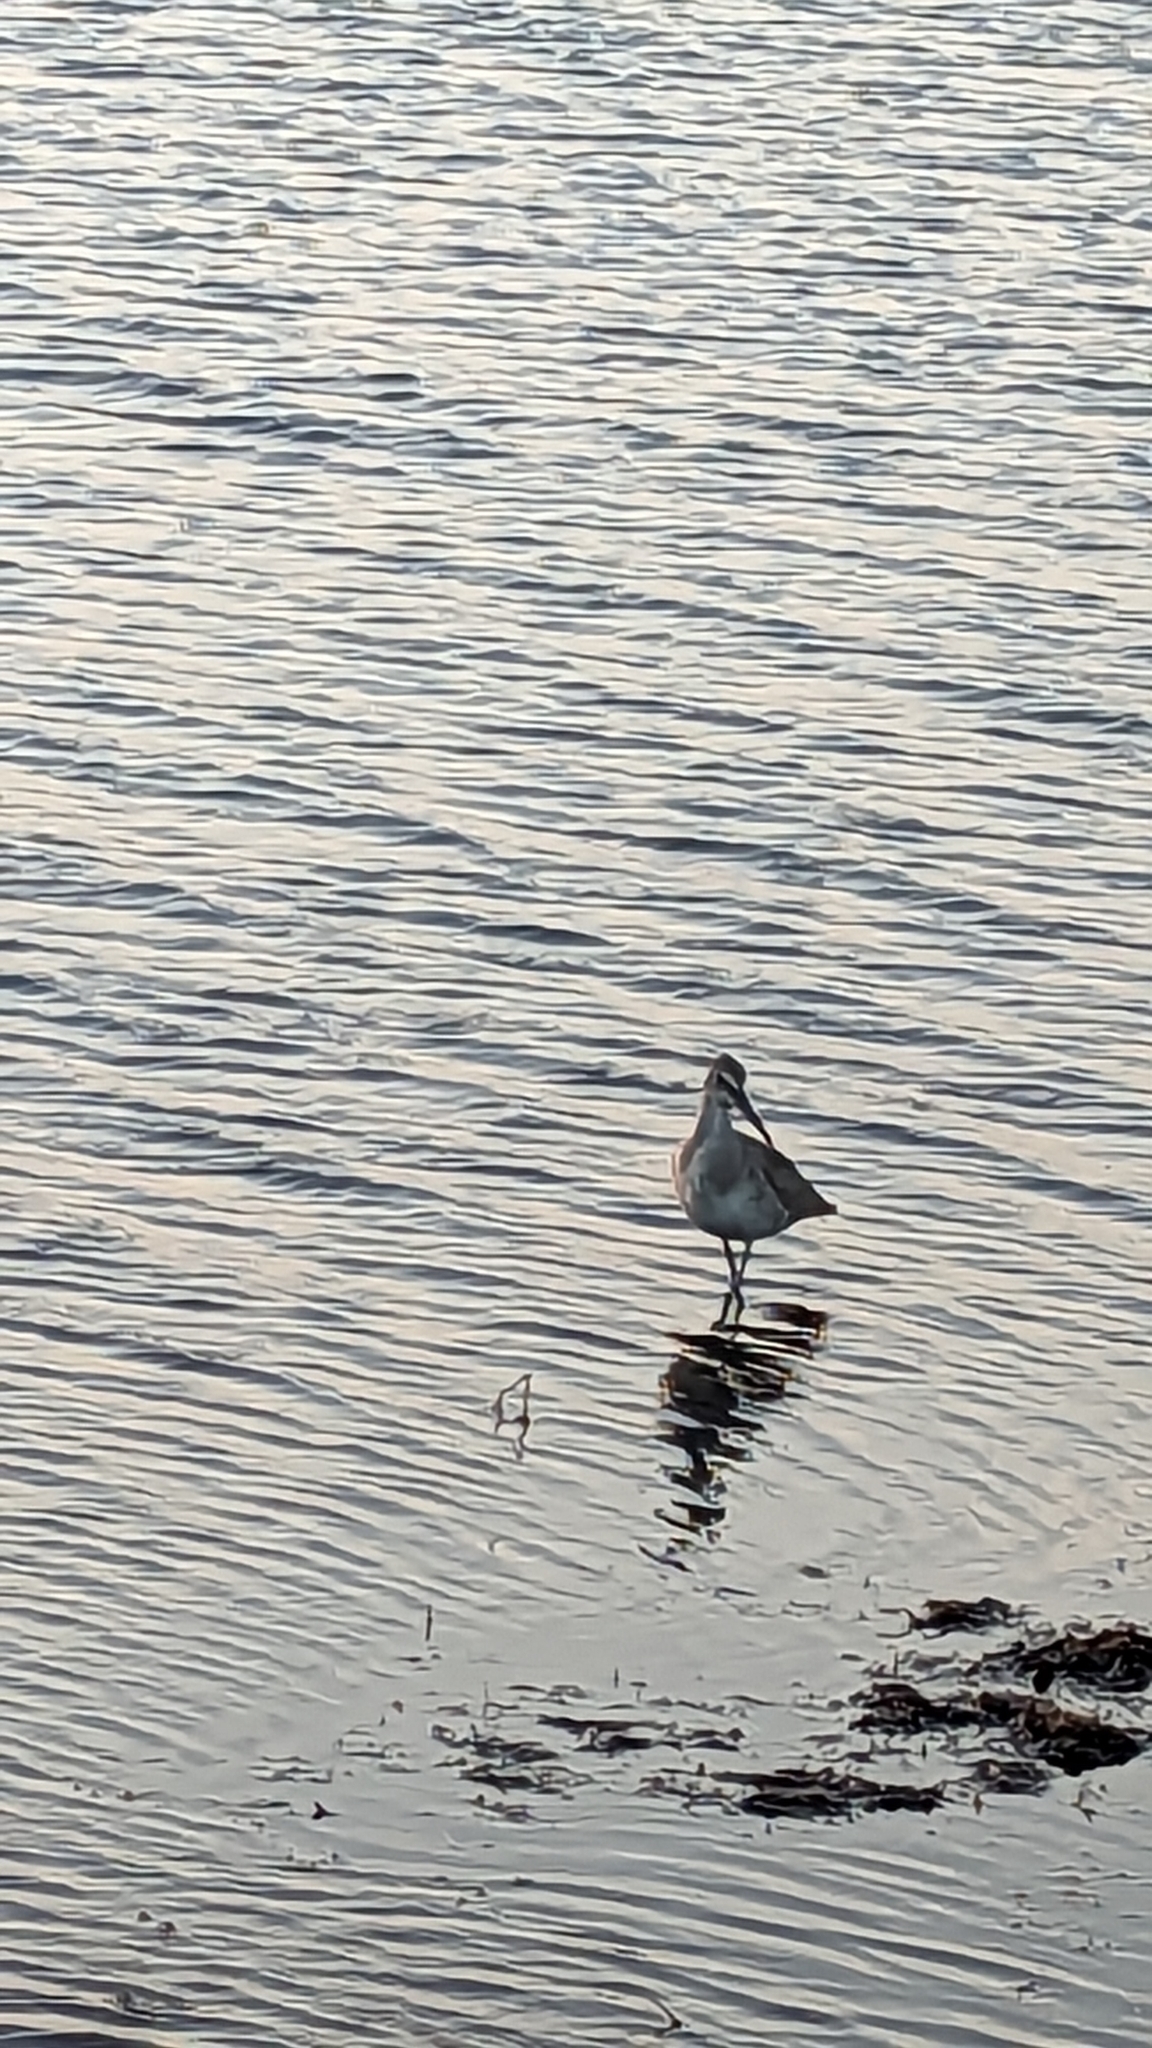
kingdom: Animalia
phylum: Chordata
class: Aves
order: Charadriiformes
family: Scolopacidae
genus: Tringa
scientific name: Tringa semipalmata
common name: Willet
